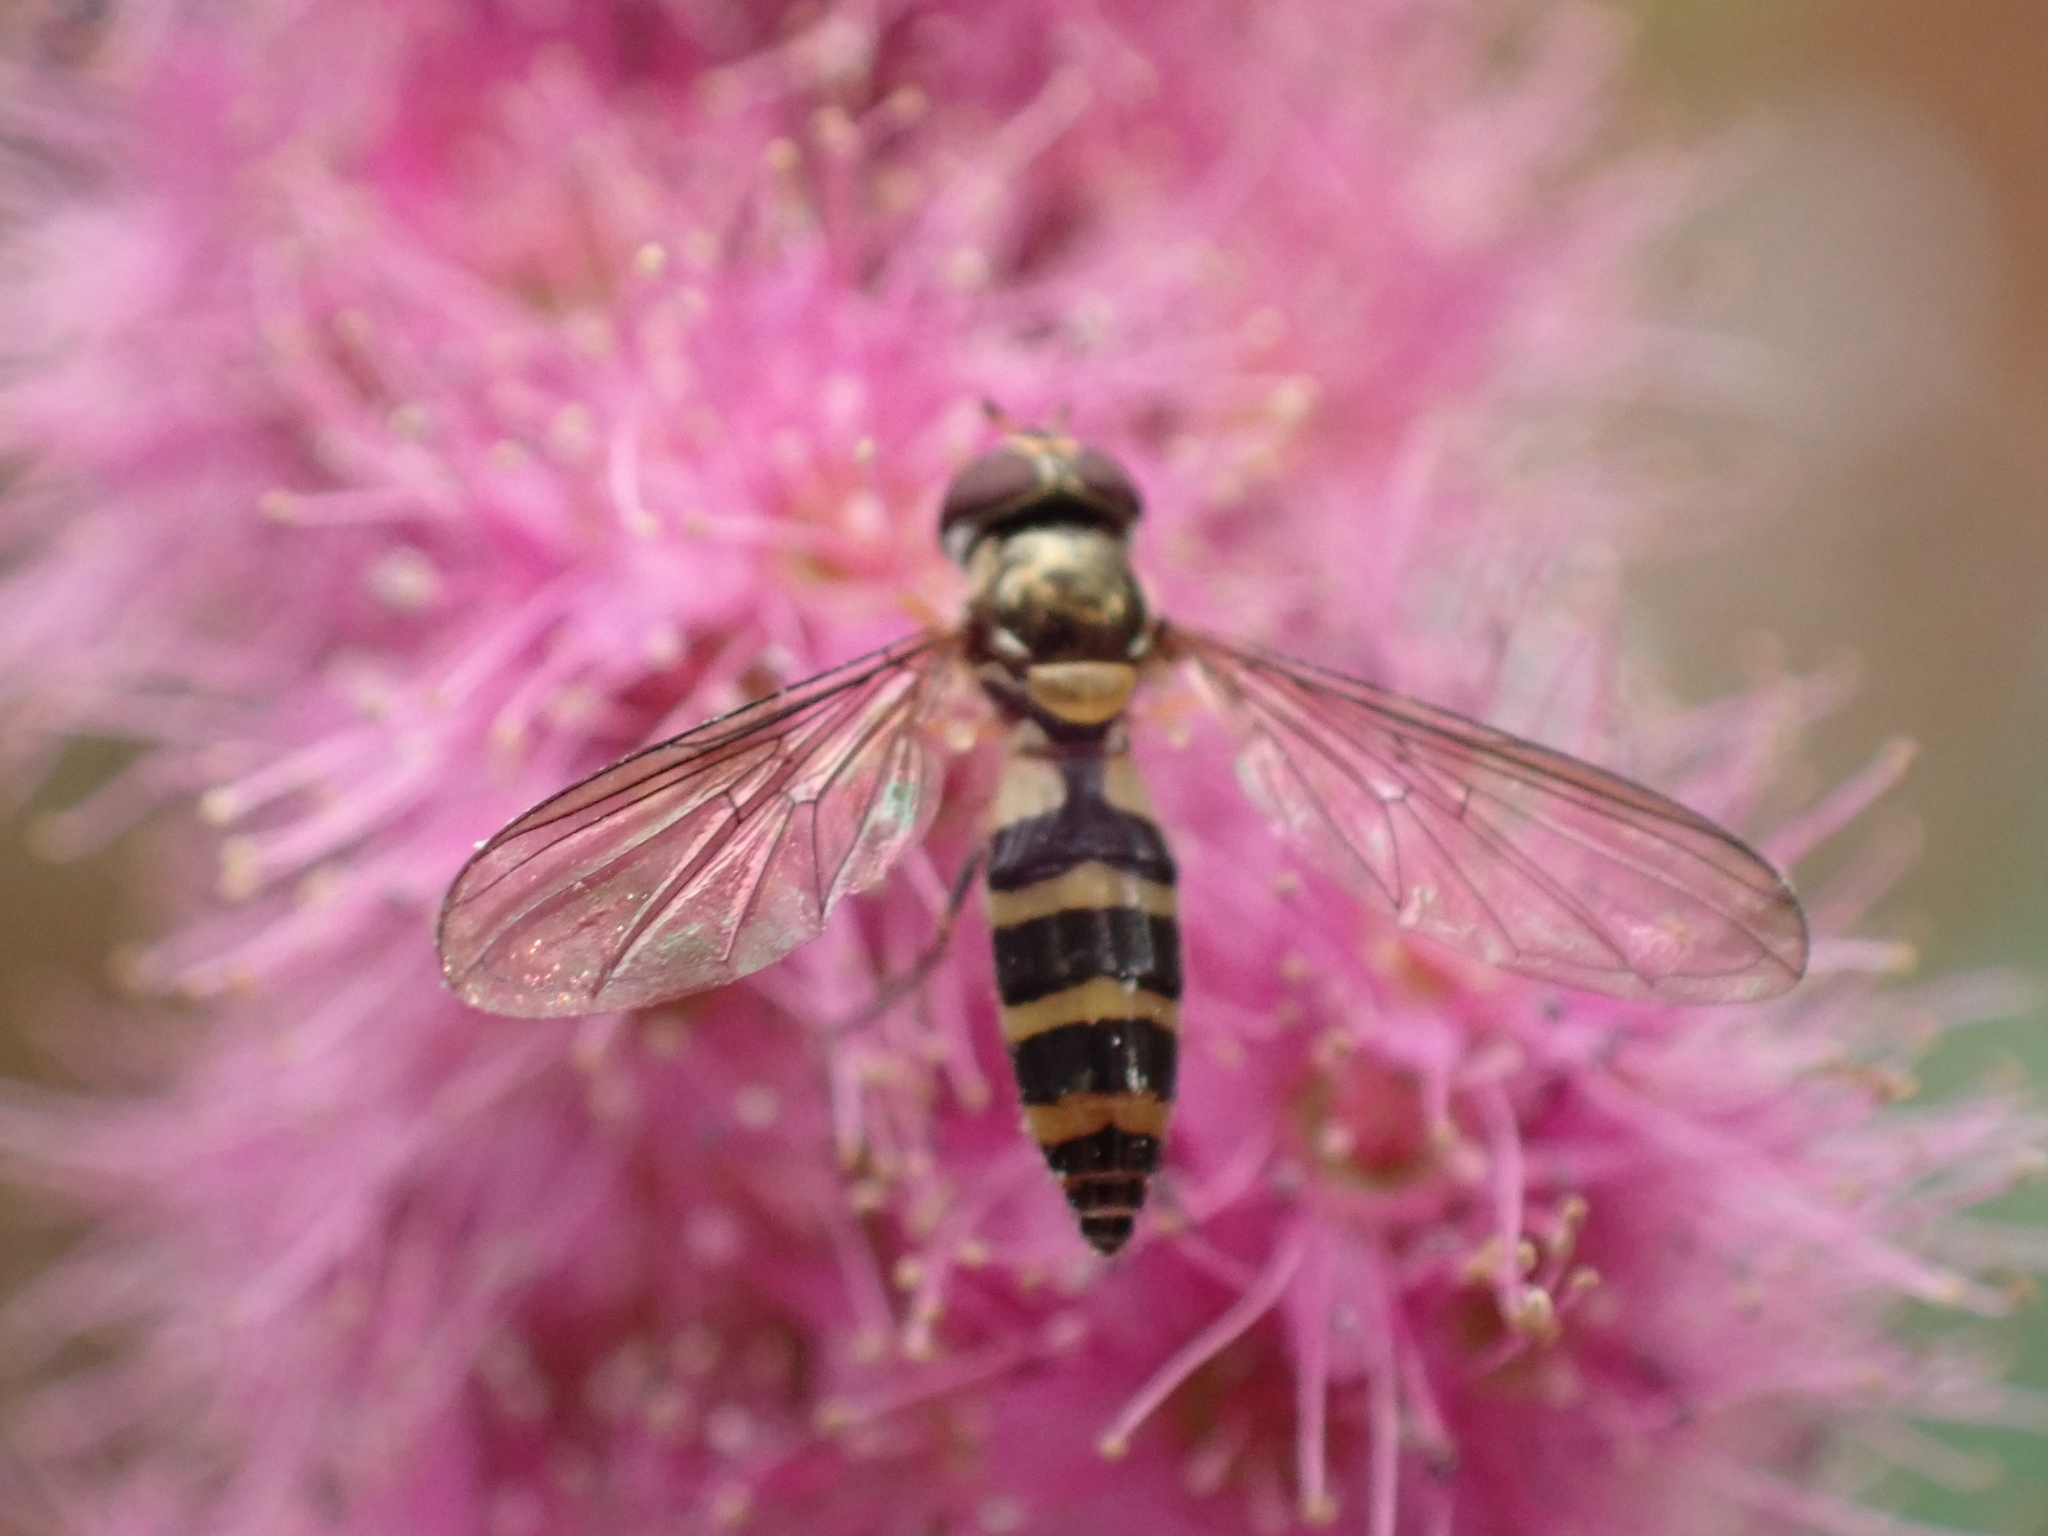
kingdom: Animalia
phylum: Arthropoda
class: Insecta
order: Diptera
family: Syrphidae
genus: Meliscaeva
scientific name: Meliscaeva cinctella
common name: American thintail fly
